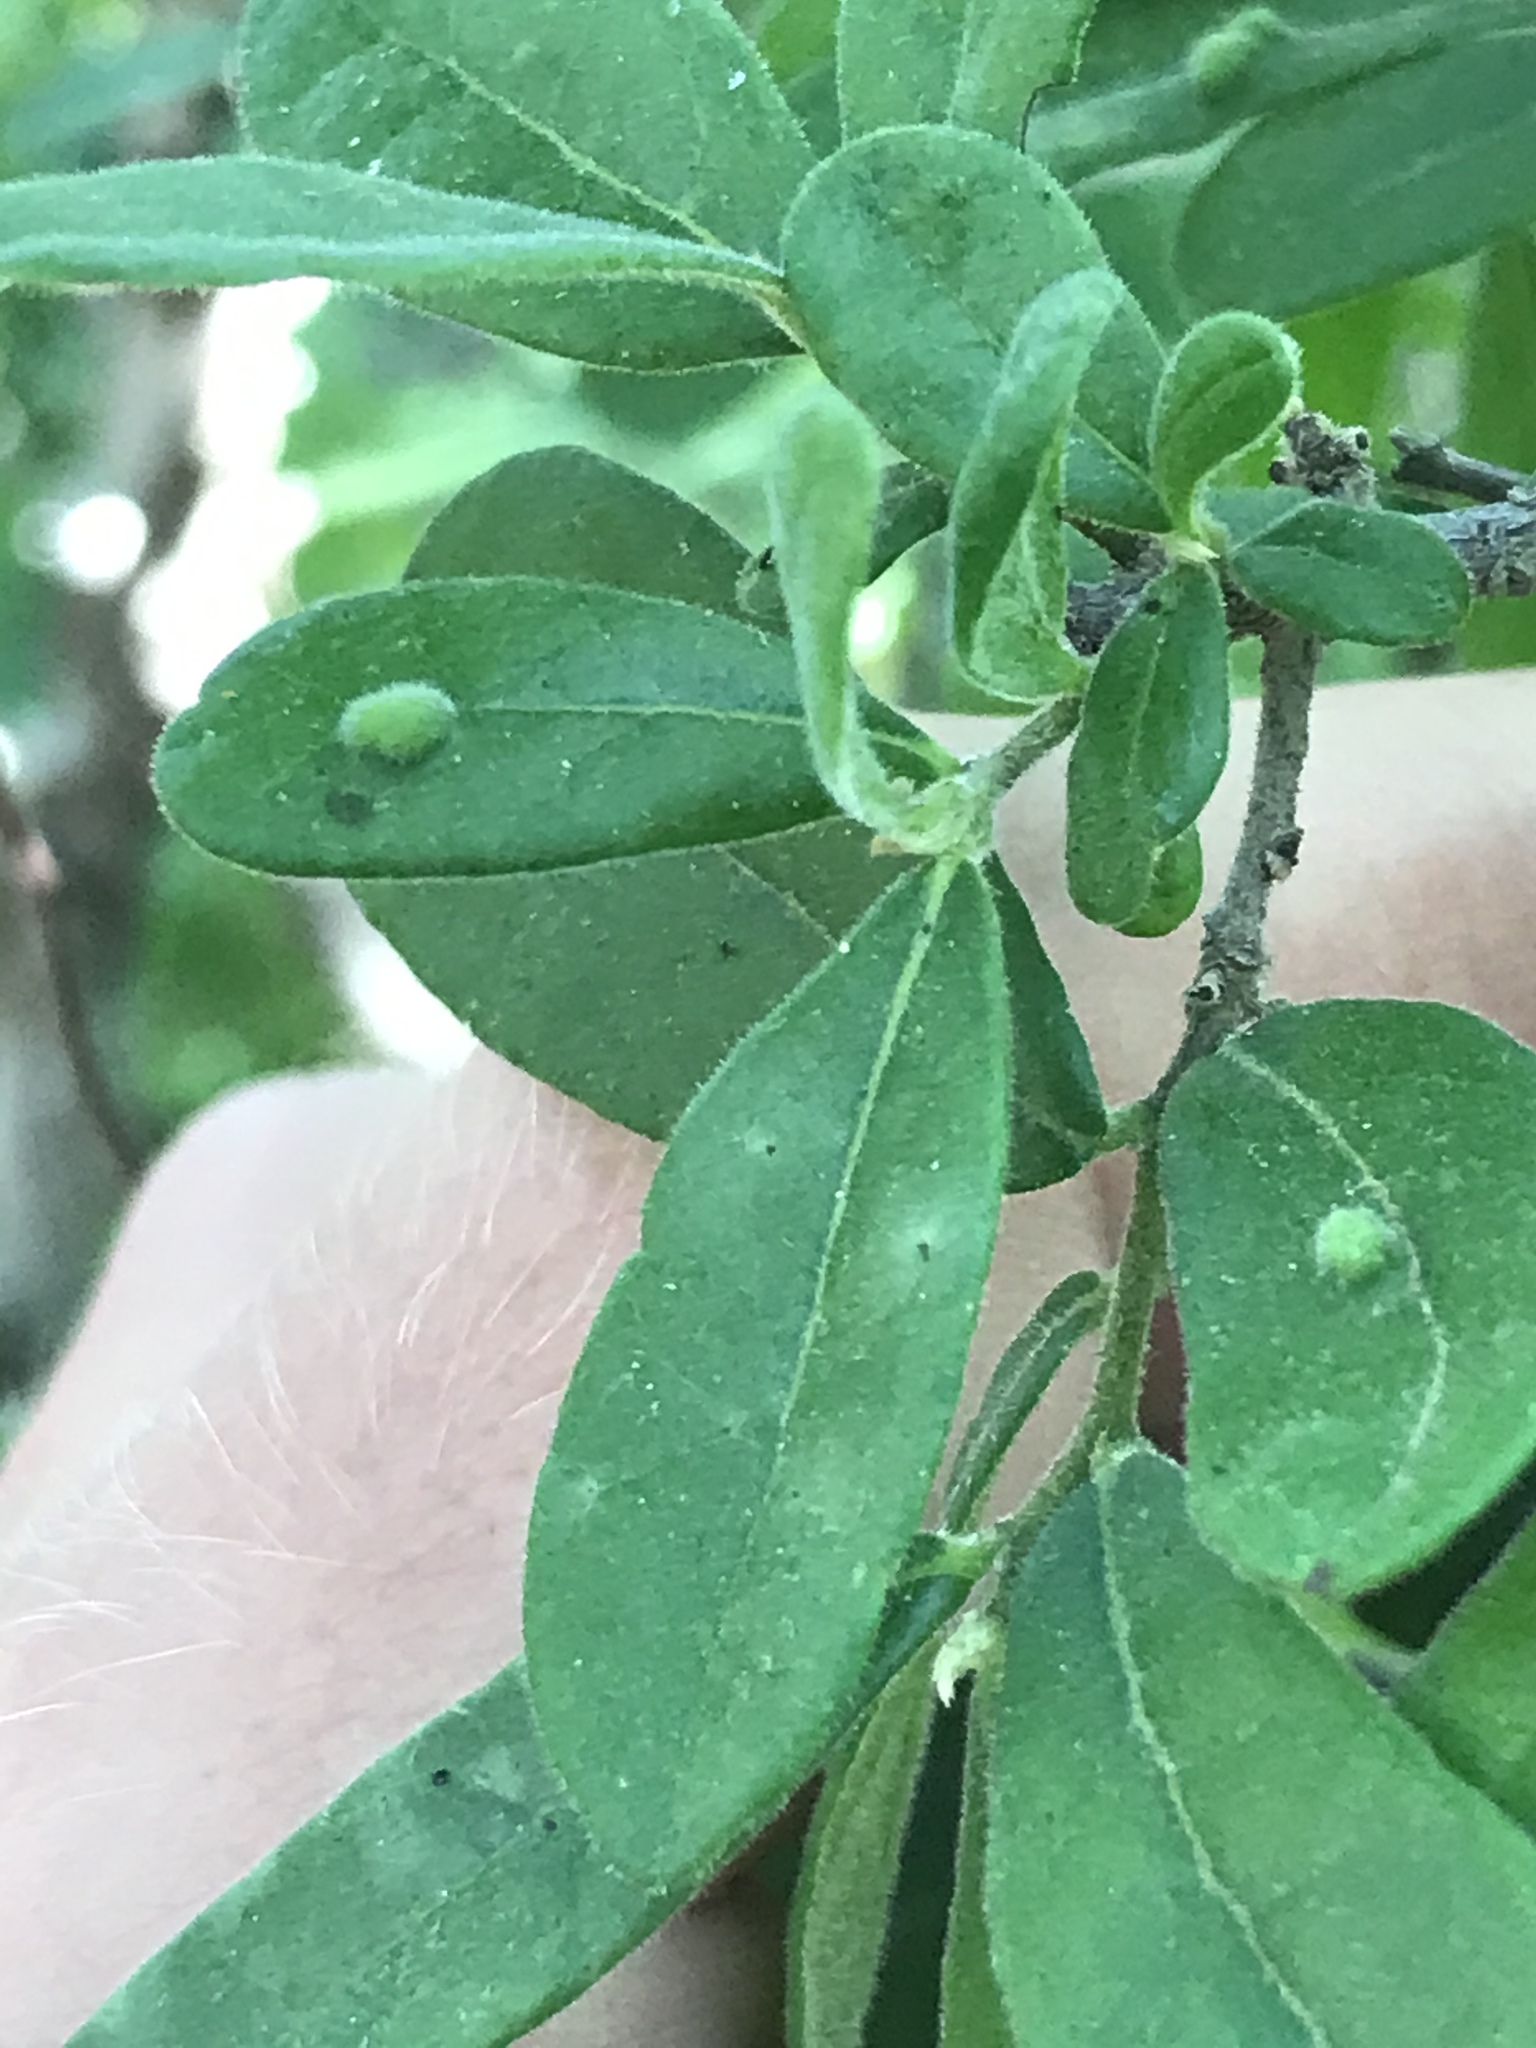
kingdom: Plantae
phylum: Tracheophyta
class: Magnoliopsida
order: Ericales
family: Ebenaceae
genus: Diospyros
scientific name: Diospyros texana
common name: Texas persimmon
